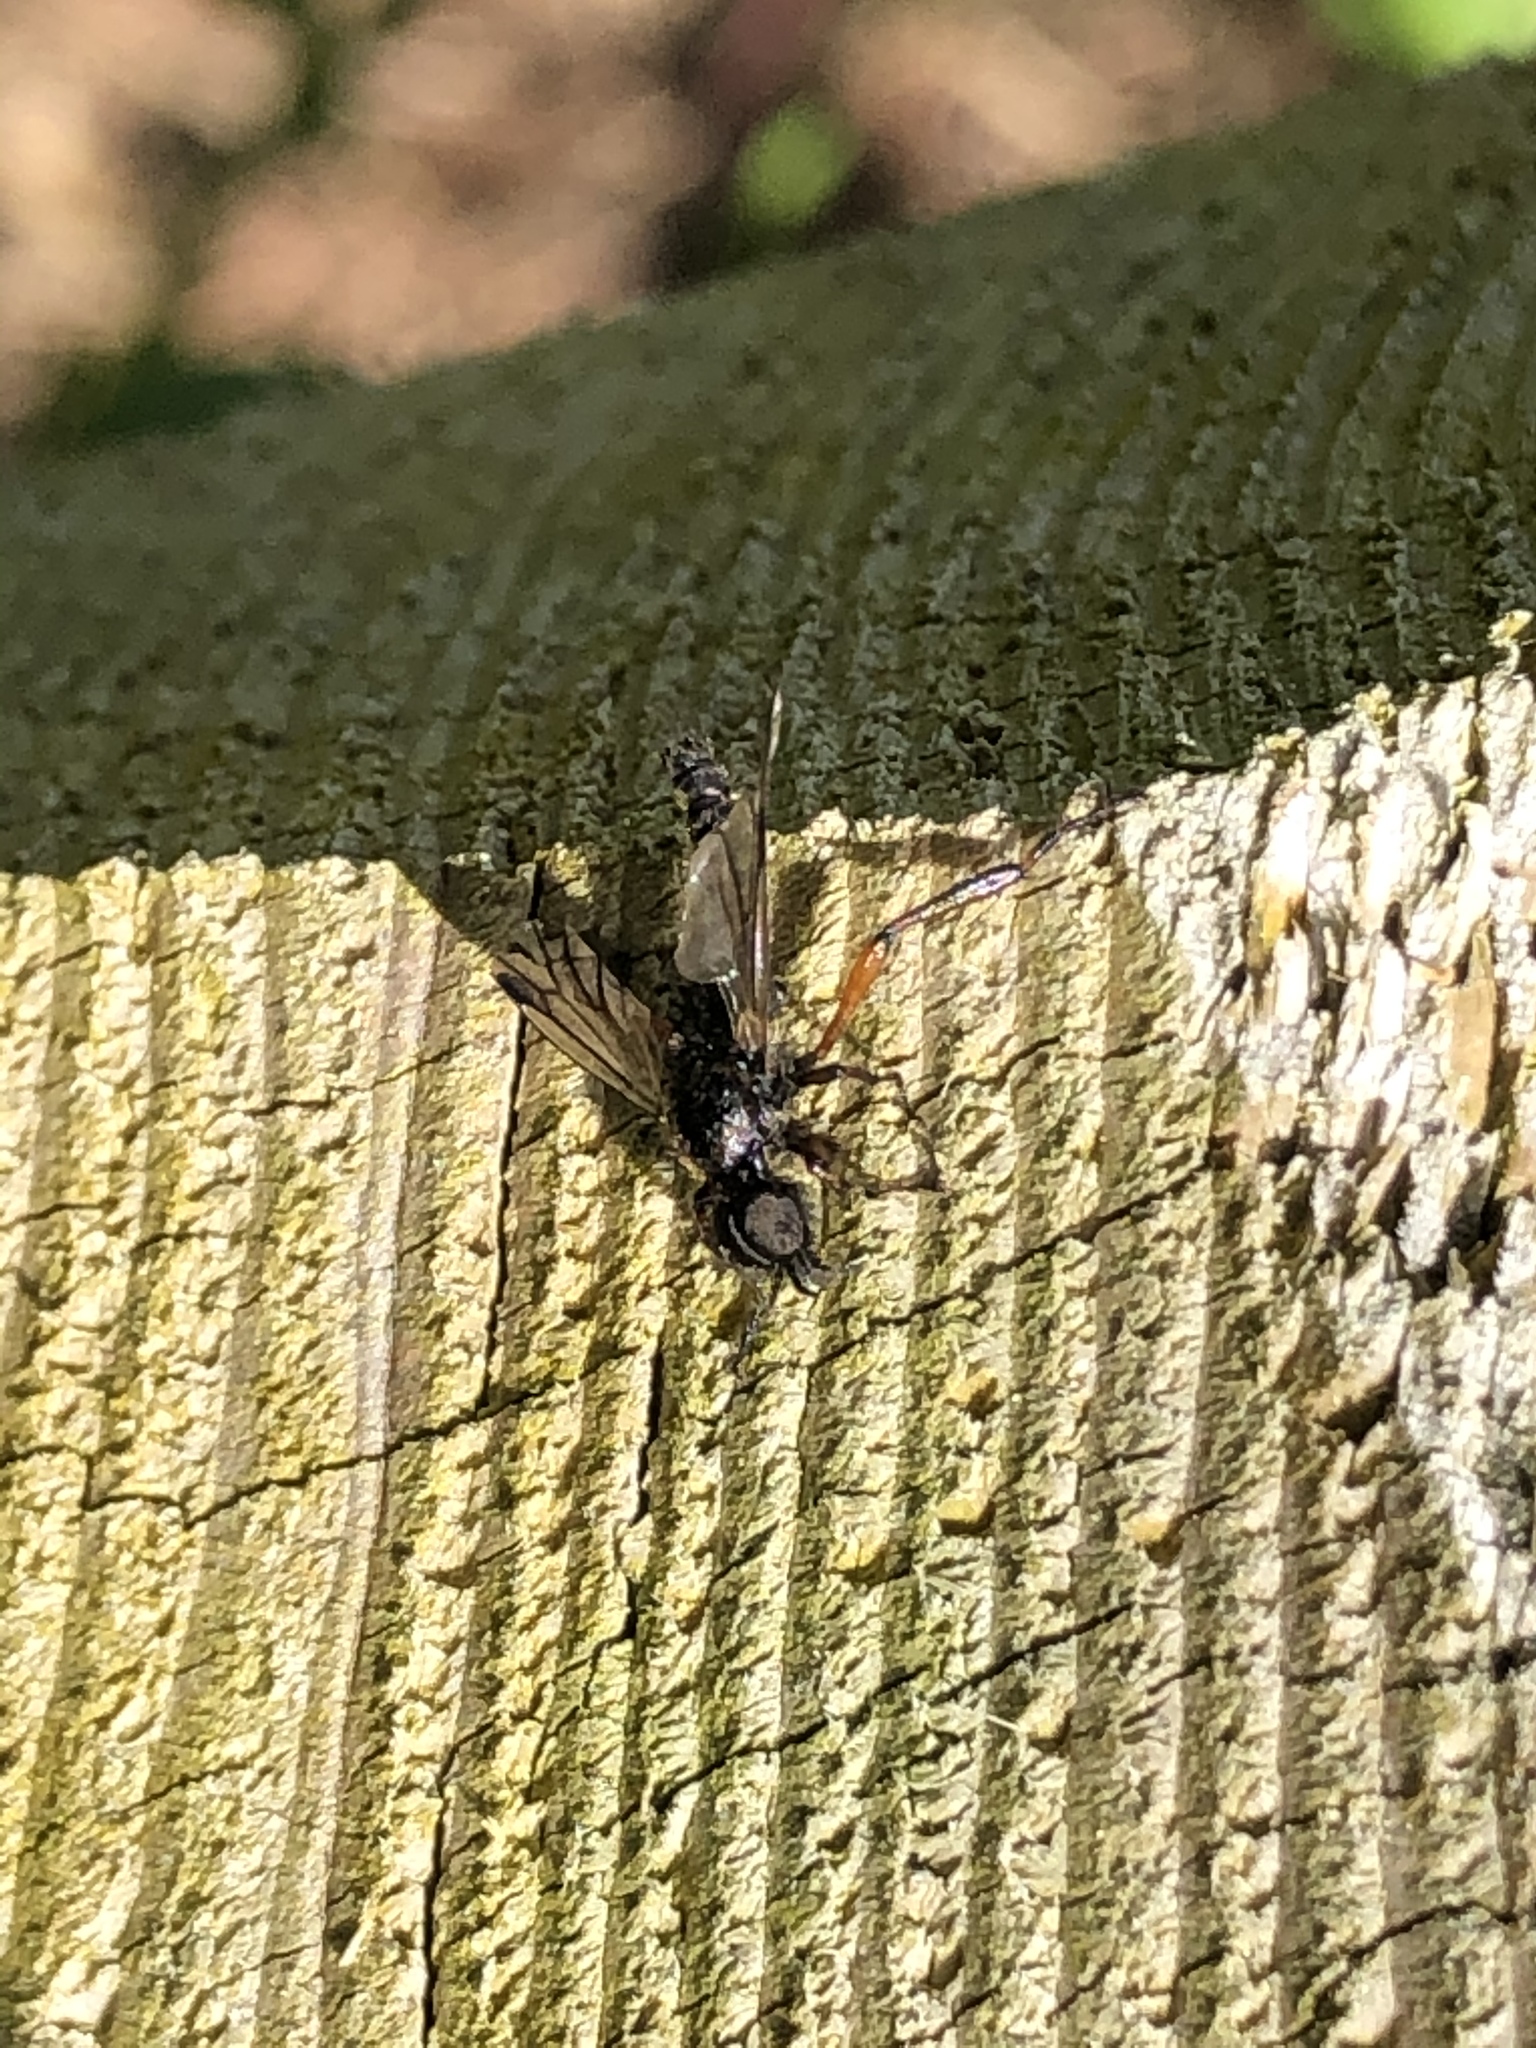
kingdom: Animalia
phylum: Arthropoda
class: Insecta
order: Diptera
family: Bibionidae
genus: Bibio
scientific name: Bibio vestitus
